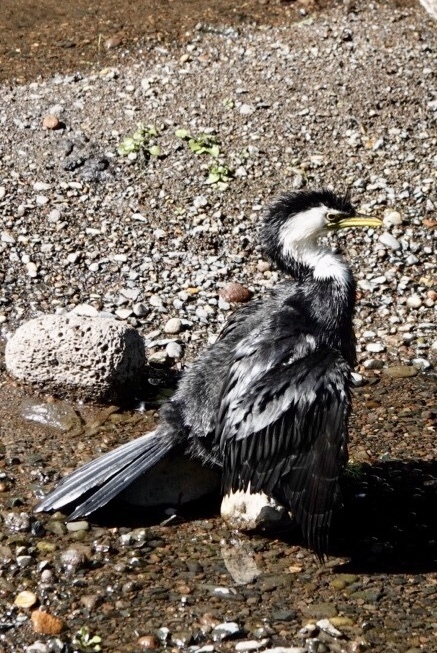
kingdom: Animalia
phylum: Chordata
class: Aves
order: Suliformes
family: Phalacrocoracidae
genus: Microcarbo
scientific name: Microcarbo melanoleucos
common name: Little pied cormorant
